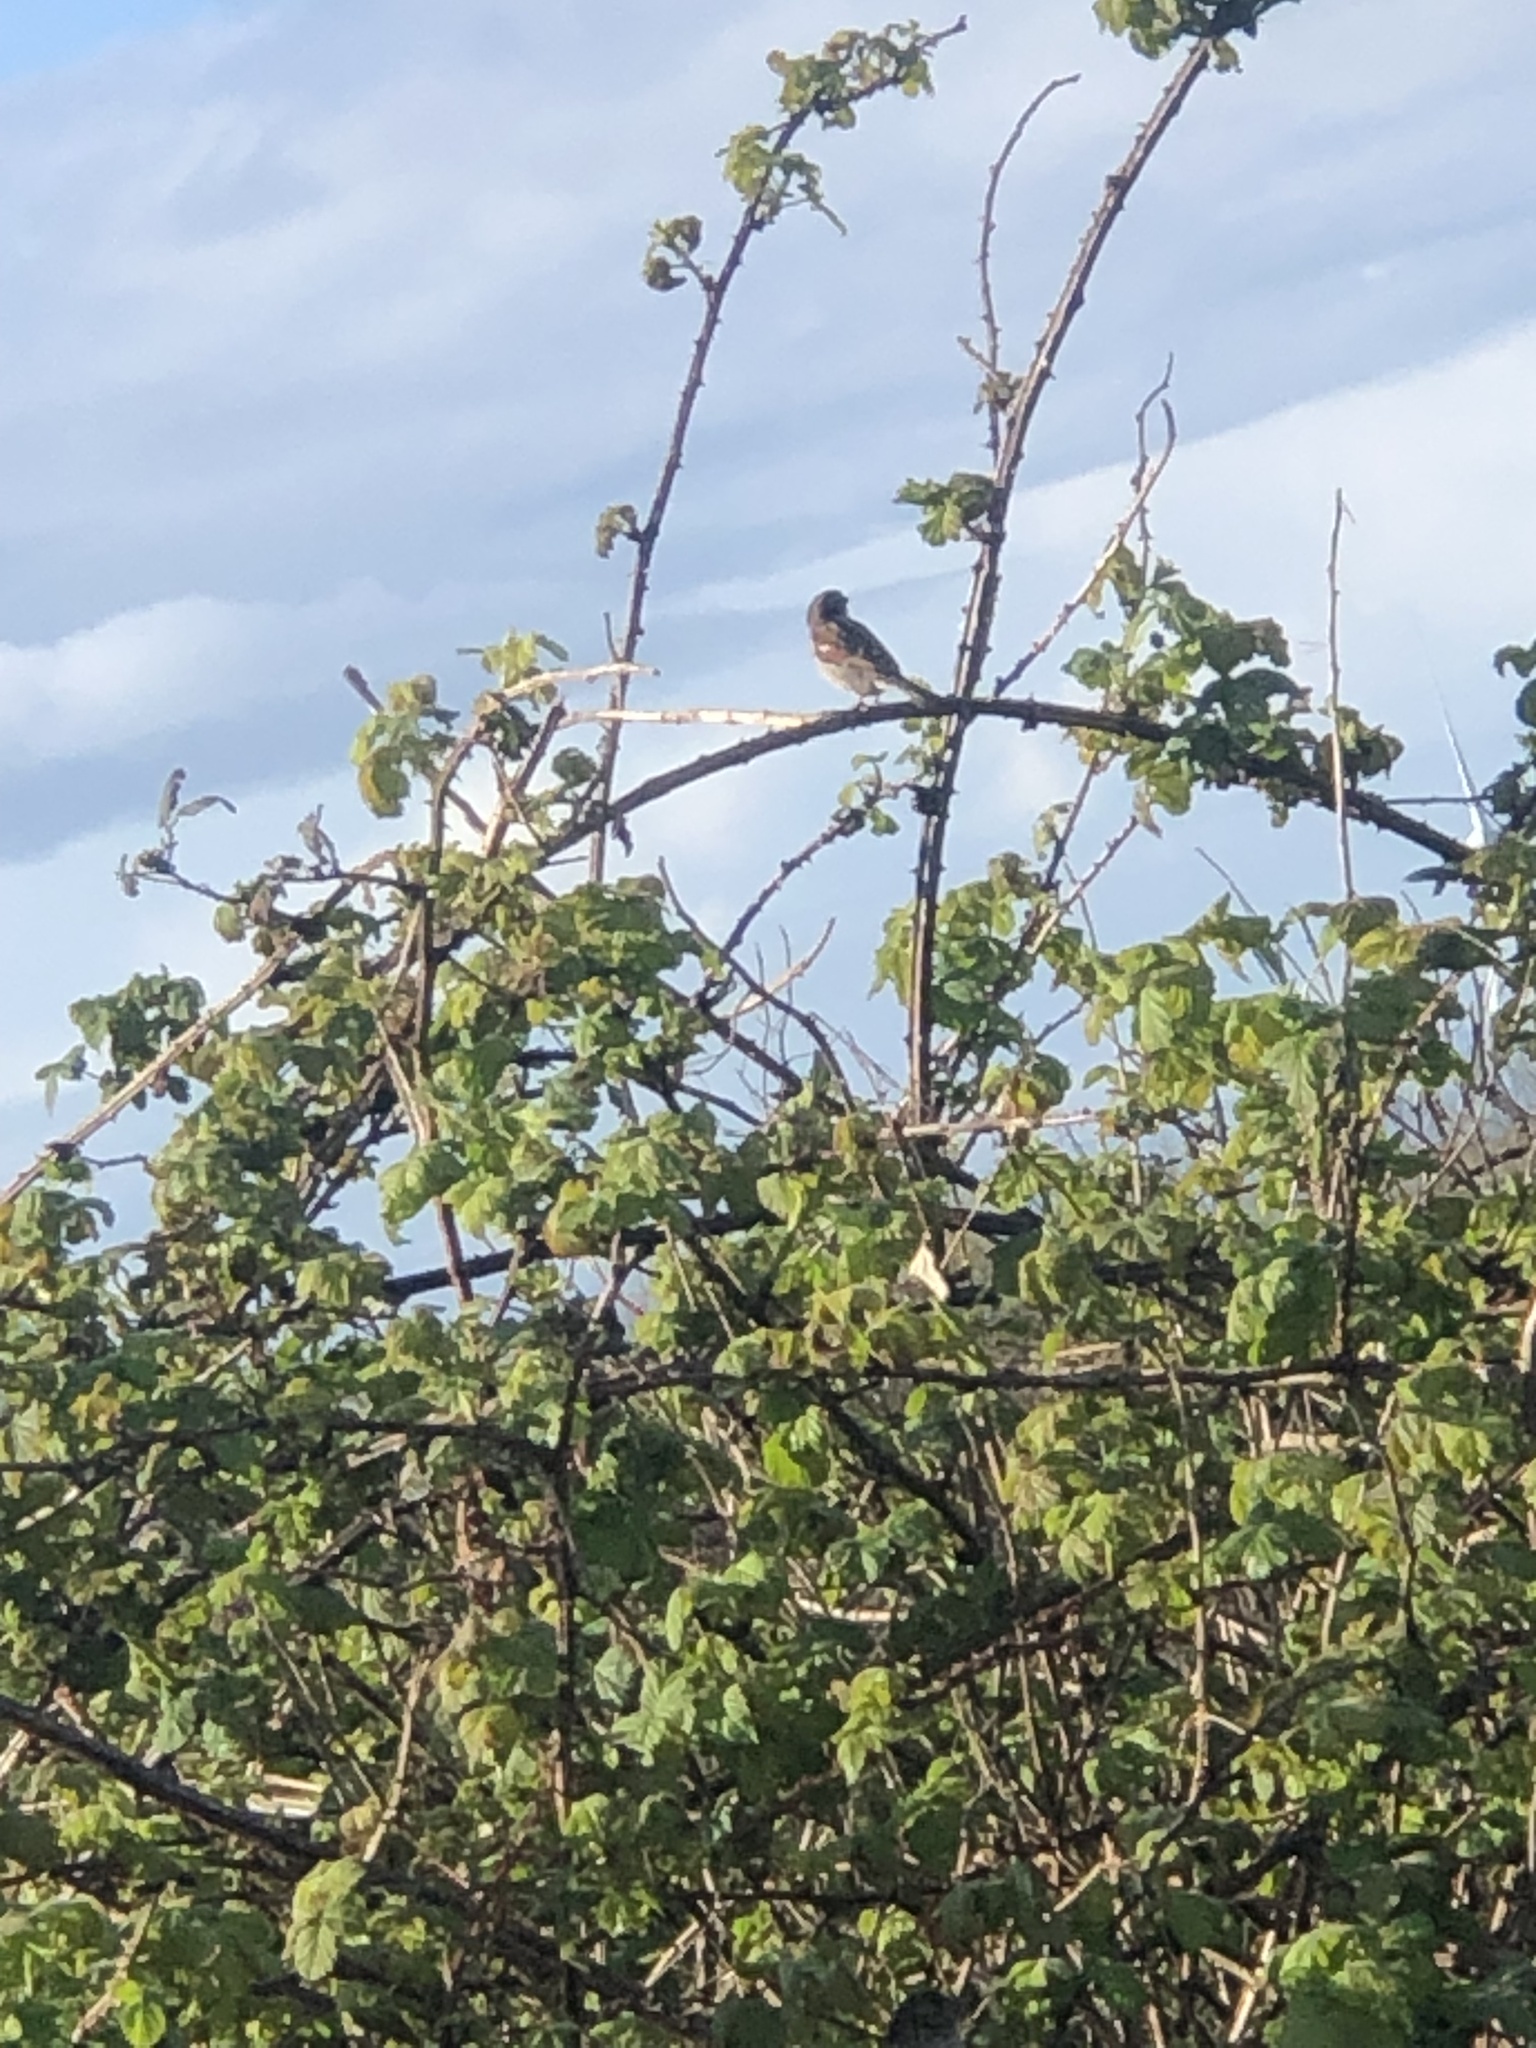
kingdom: Animalia
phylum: Chordata
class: Aves
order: Passeriformes
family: Passeridae
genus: Passer
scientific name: Passer domesticus
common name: House sparrow
